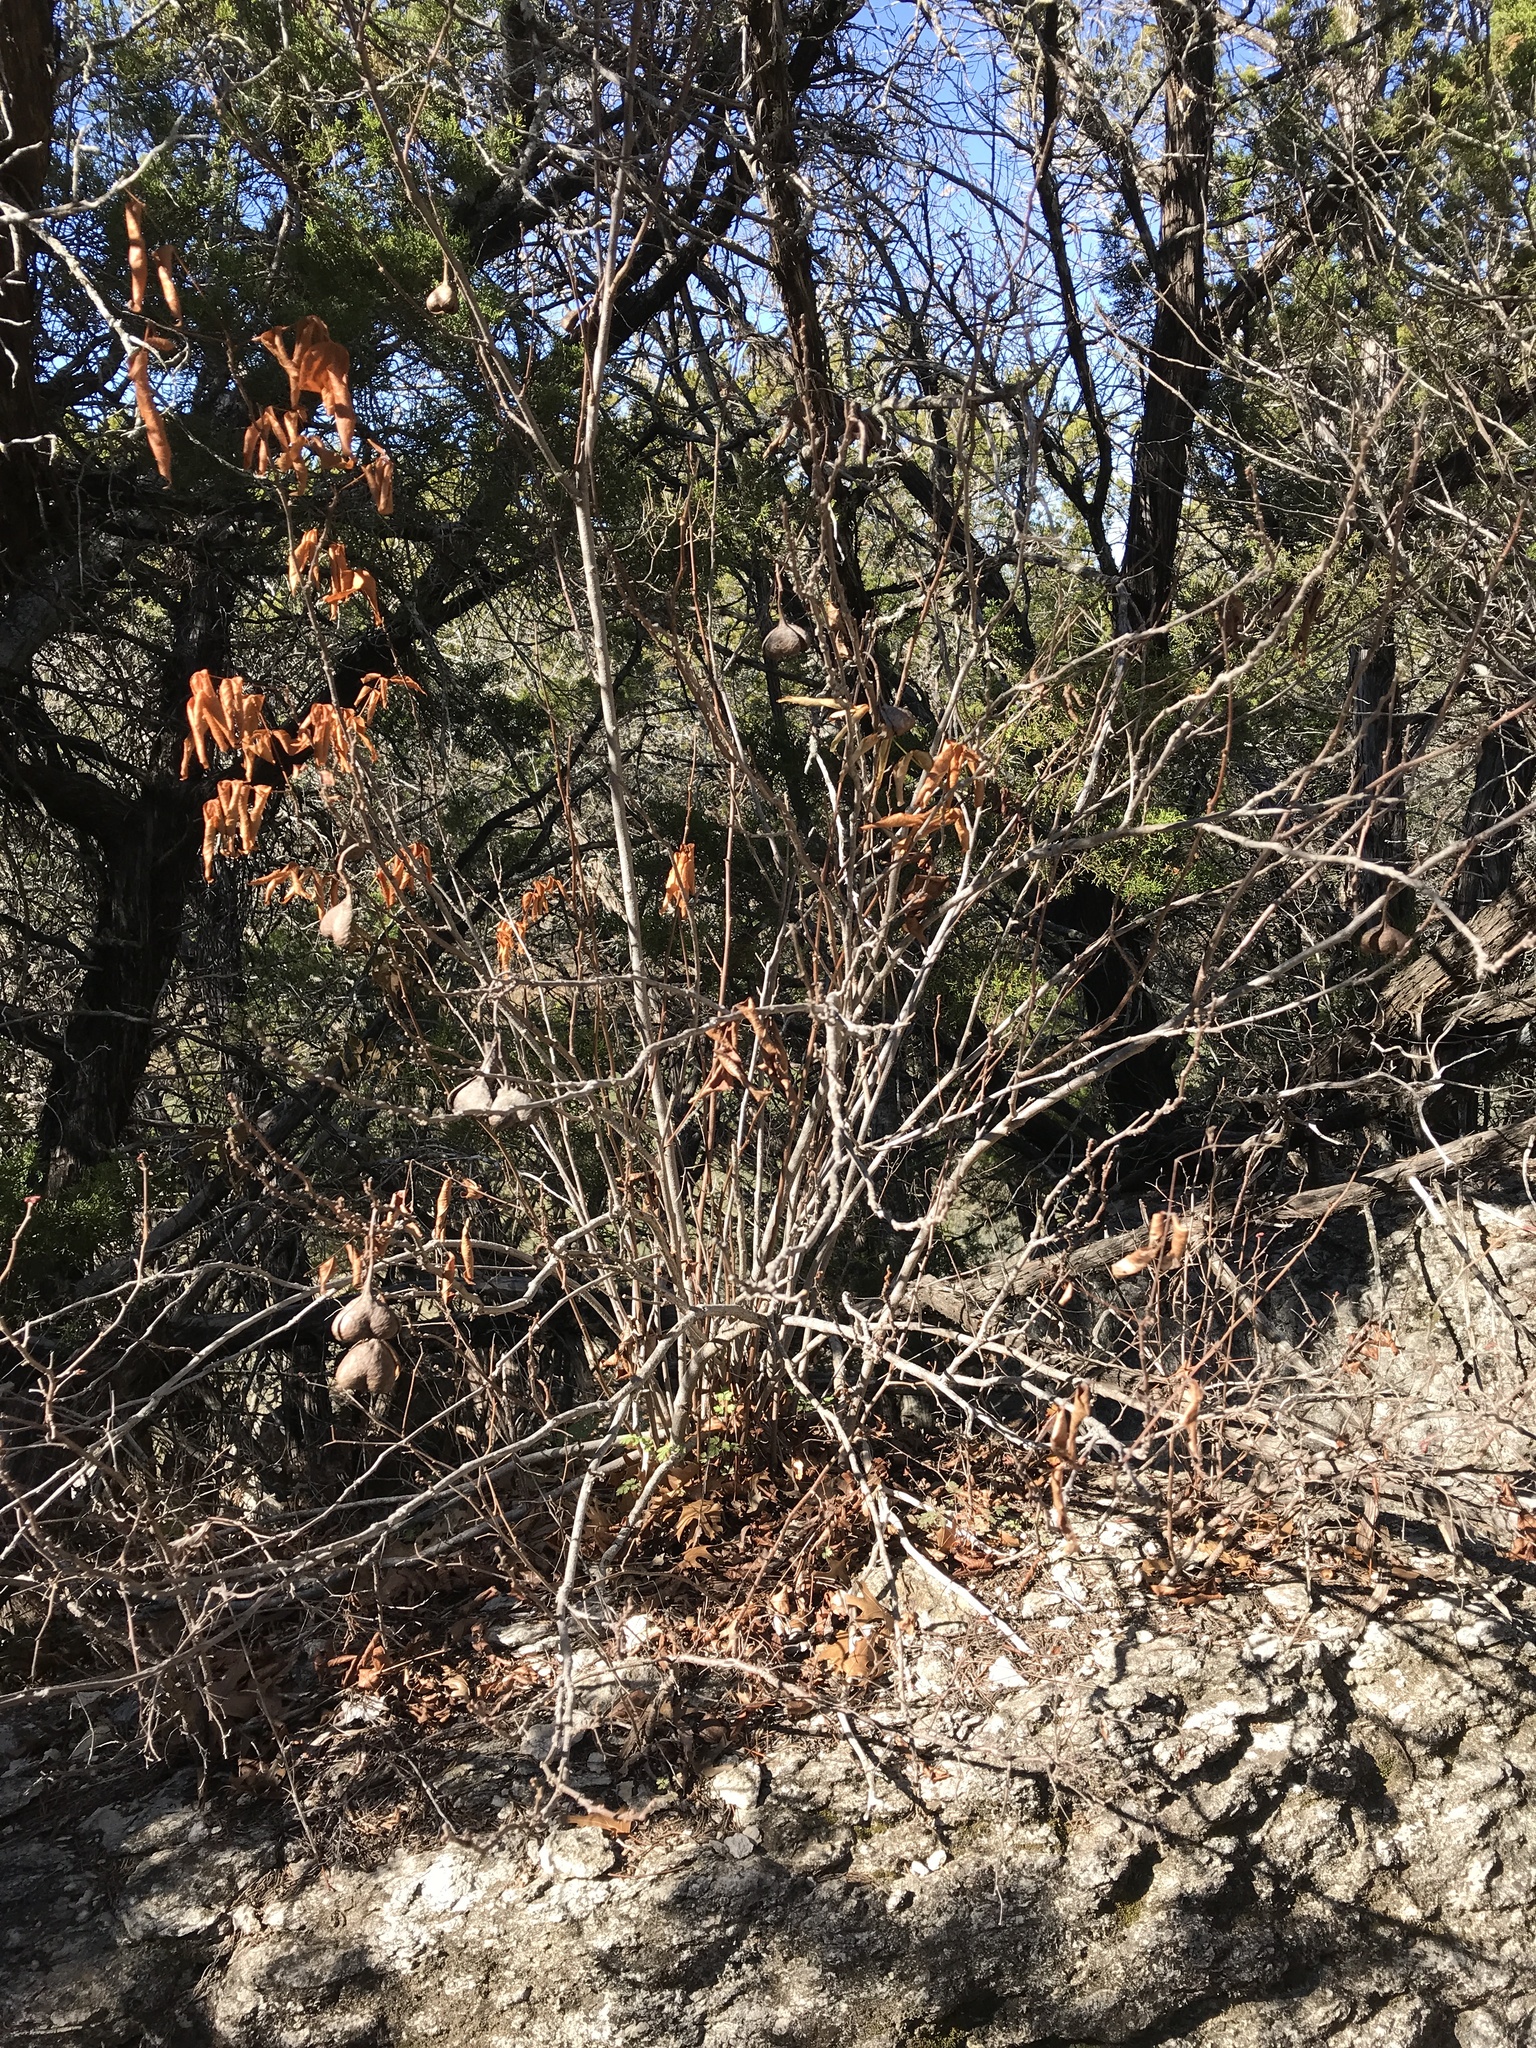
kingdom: Plantae
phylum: Tracheophyta
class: Magnoliopsida
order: Sapindales
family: Sapindaceae
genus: Ungnadia
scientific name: Ungnadia speciosa
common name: Texas-buckeye
